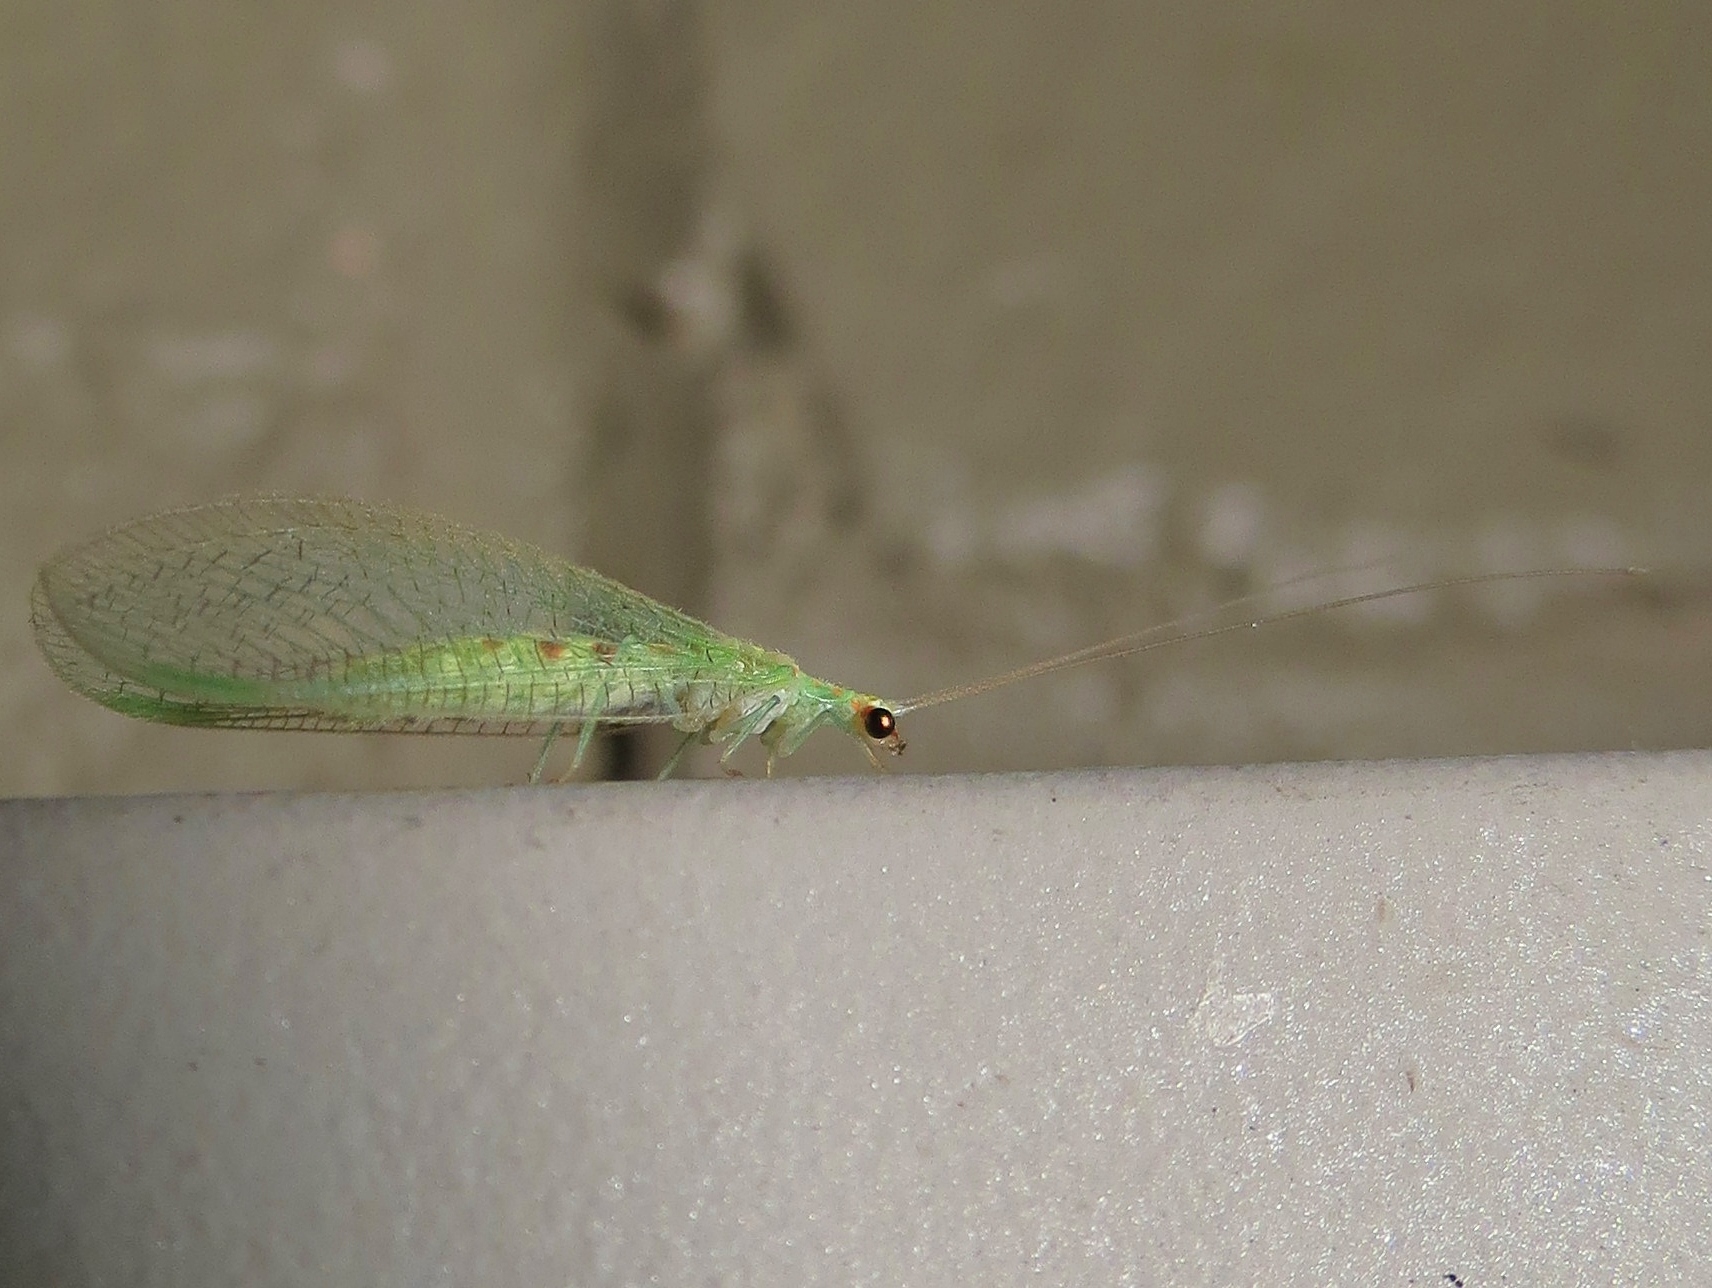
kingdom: Animalia
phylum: Arthropoda
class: Insecta
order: Neuroptera
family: Chrysopidae
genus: Chrysopa
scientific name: Chrysopa quadripunctata
